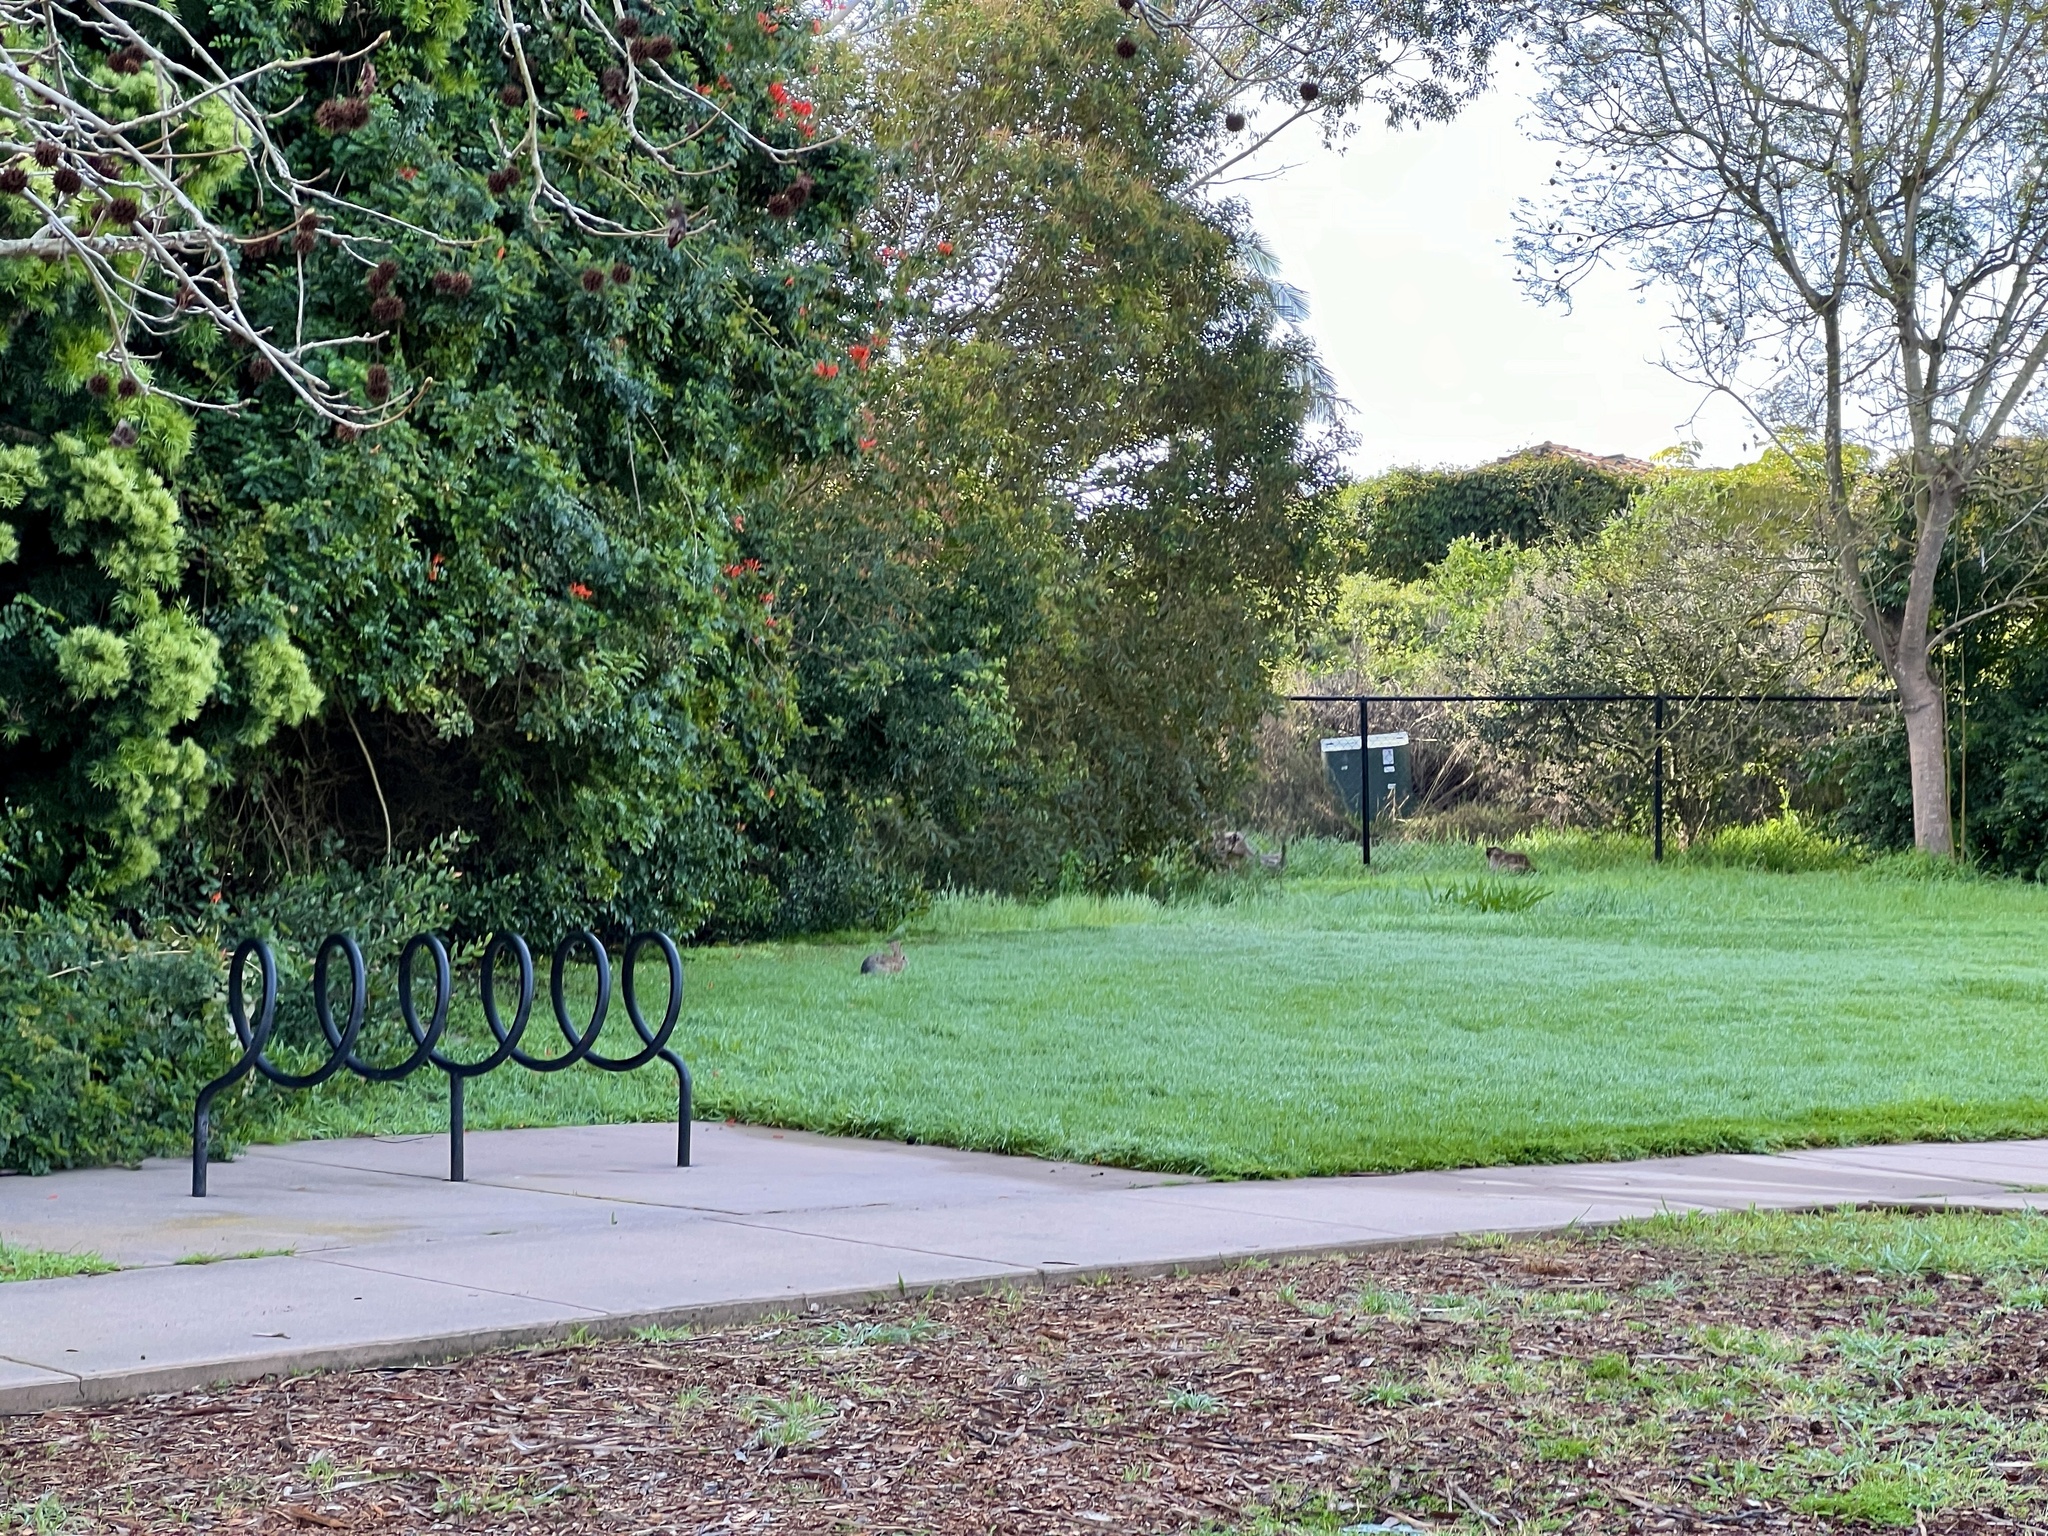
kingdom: Animalia
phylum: Chordata
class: Mammalia
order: Lagomorpha
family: Leporidae
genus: Sylvilagus
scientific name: Sylvilagus audubonii
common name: Desert cottontail
